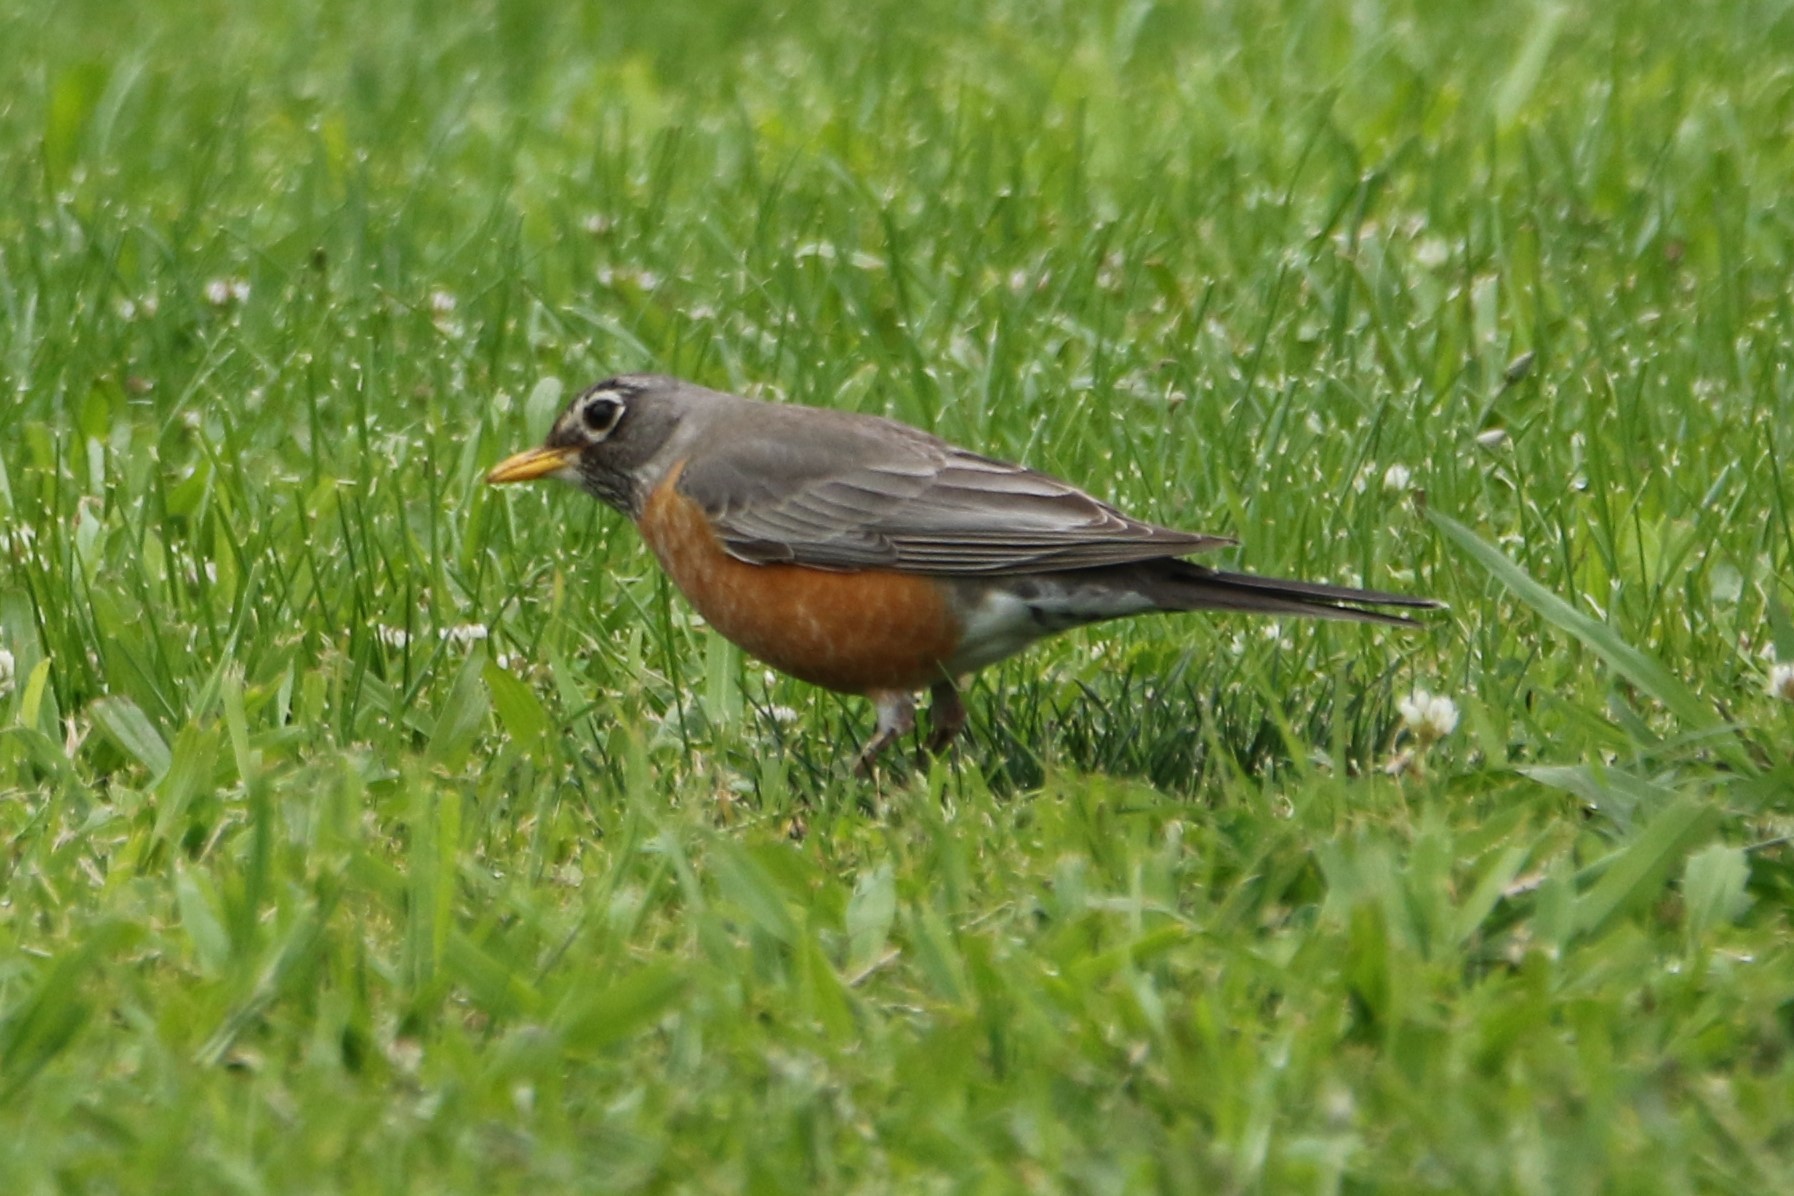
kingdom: Animalia
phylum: Chordata
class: Aves
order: Passeriformes
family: Turdidae
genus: Turdus
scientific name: Turdus migratorius
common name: American robin
